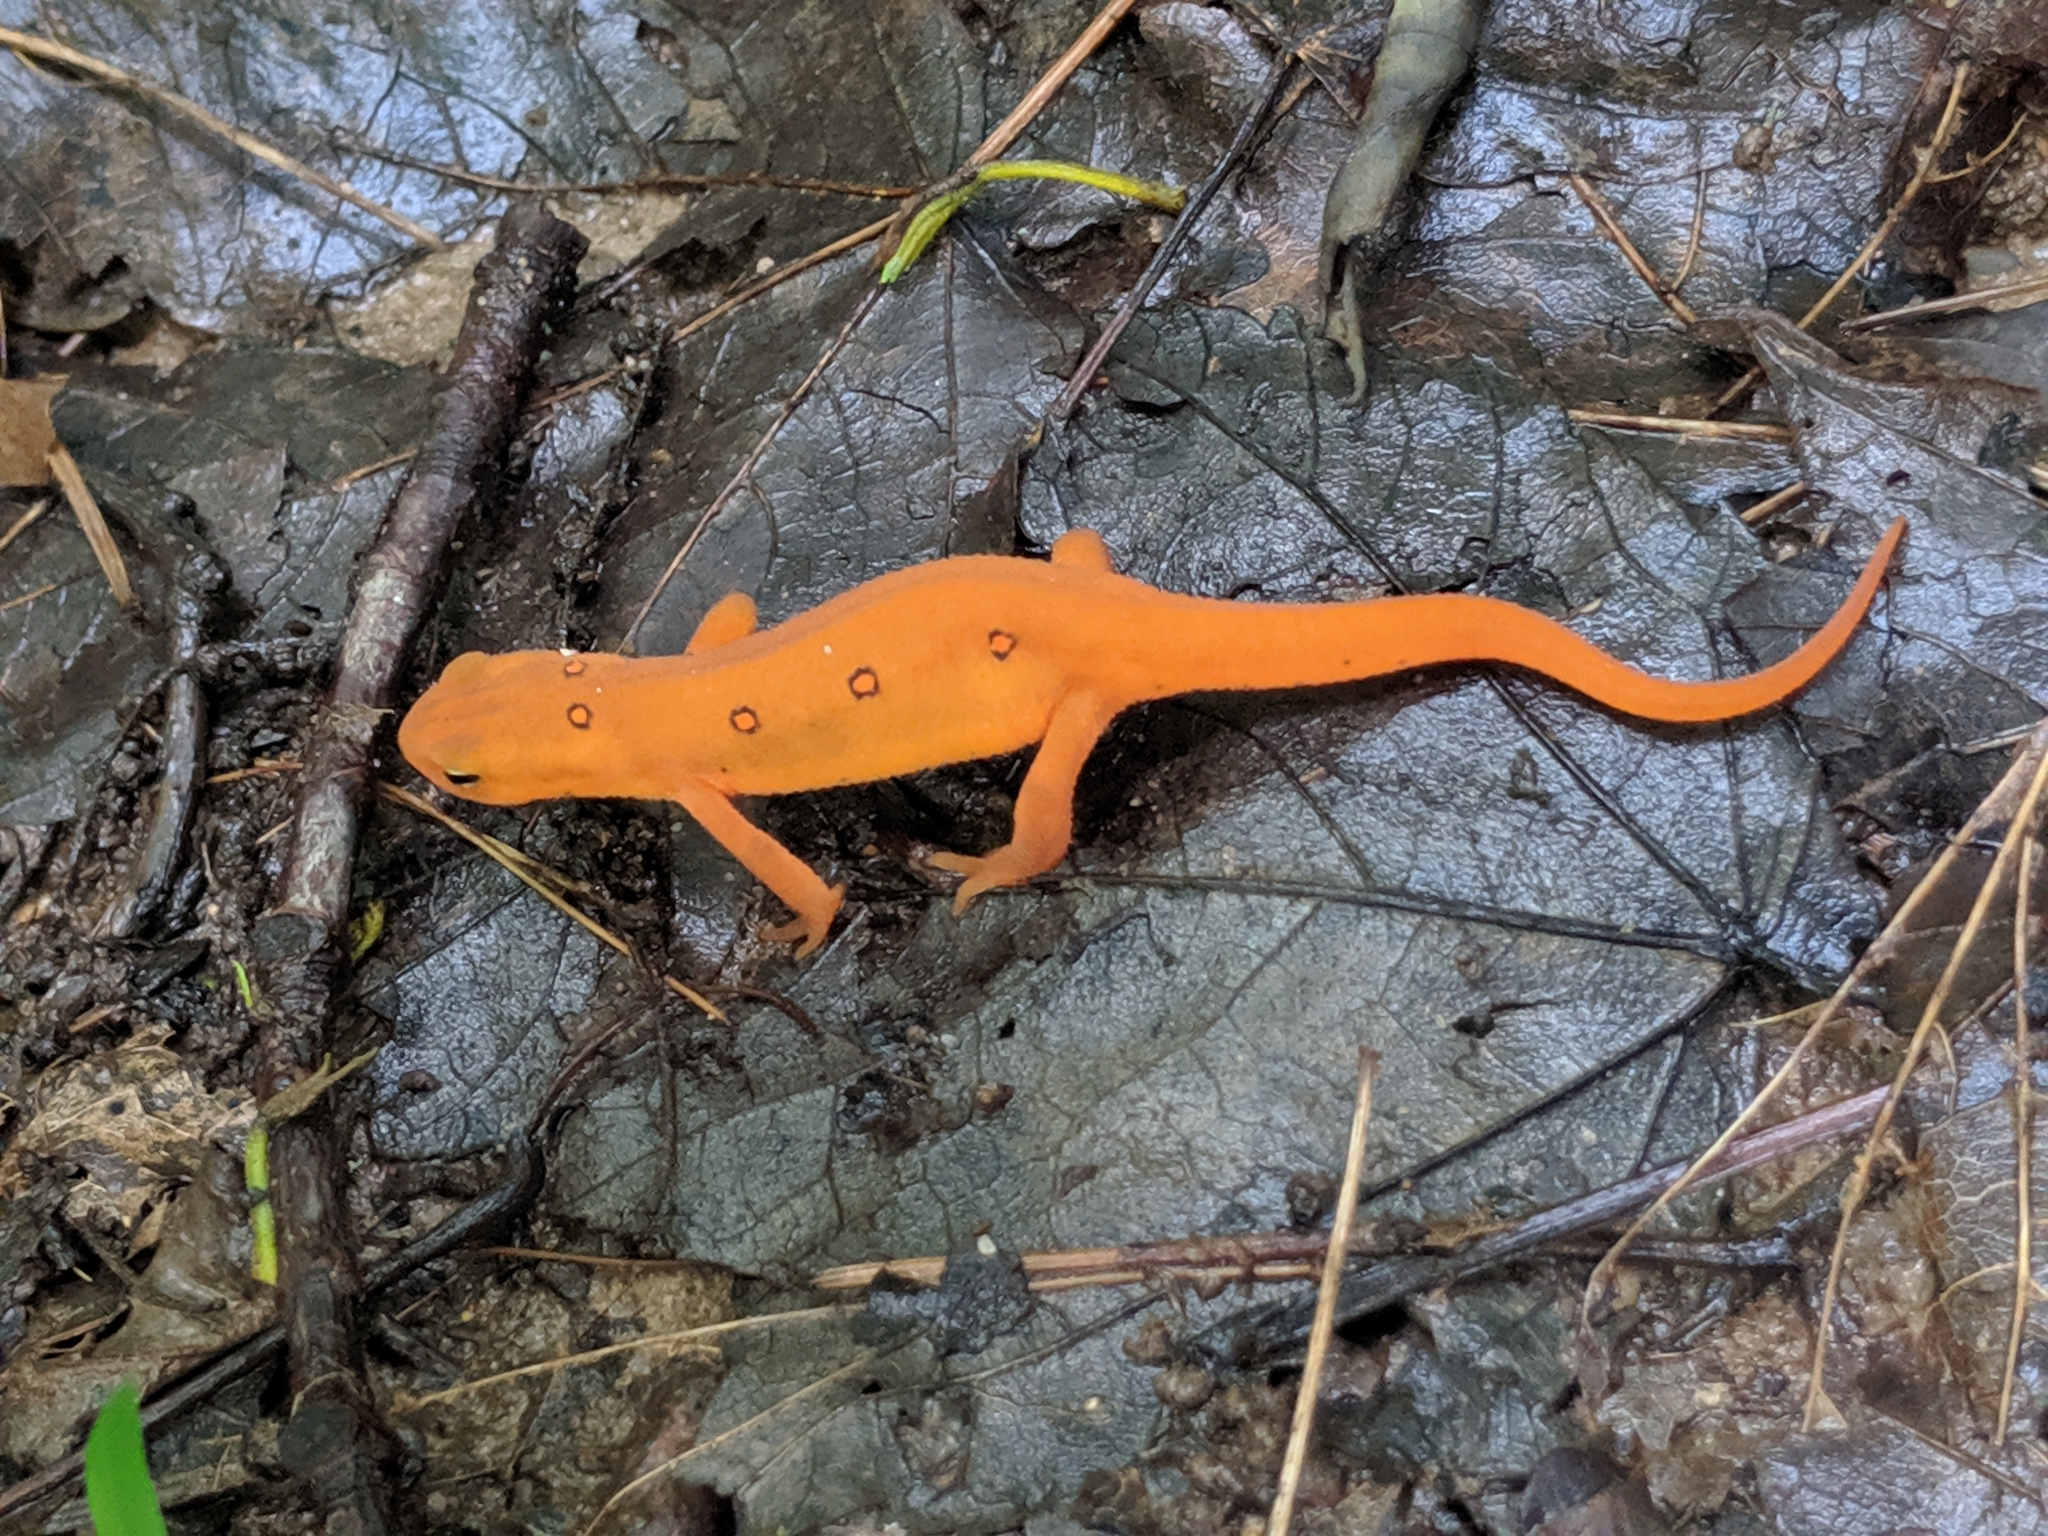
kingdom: Animalia
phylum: Chordata
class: Amphibia
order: Caudata
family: Salamandridae
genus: Notophthalmus
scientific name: Notophthalmus viridescens
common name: Eastern newt
